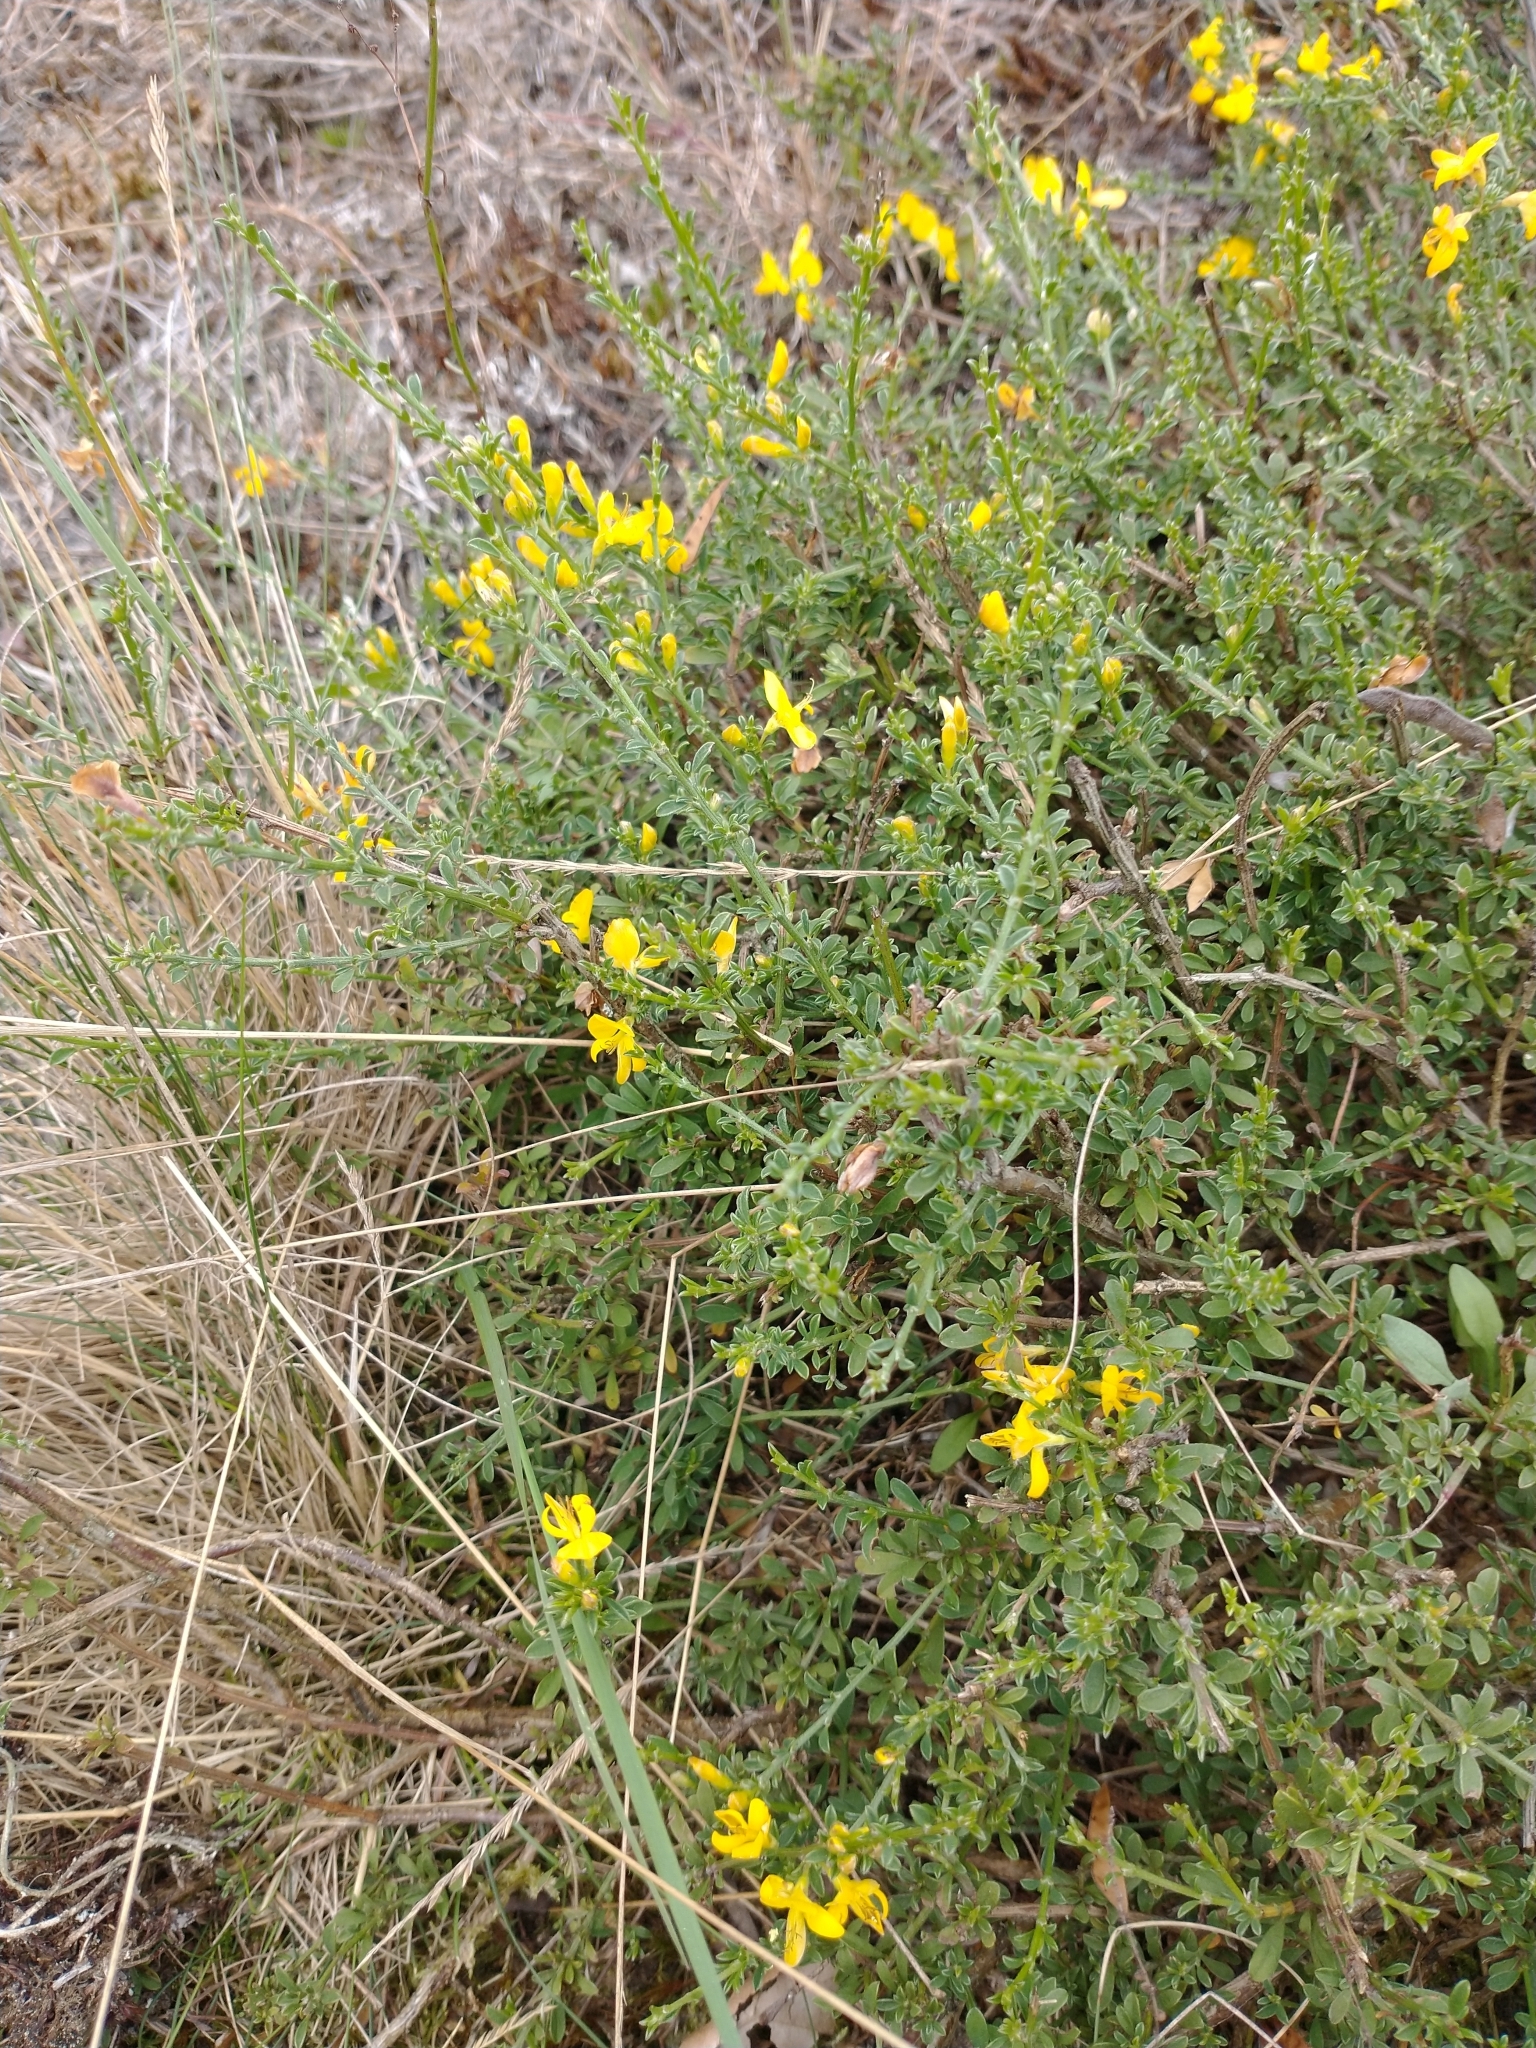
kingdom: Plantae
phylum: Tracheophyta
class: Magnoliopsida
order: Fabales
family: Fabaceae
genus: Genista
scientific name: Genista pilosa
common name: Hairy greenweed
